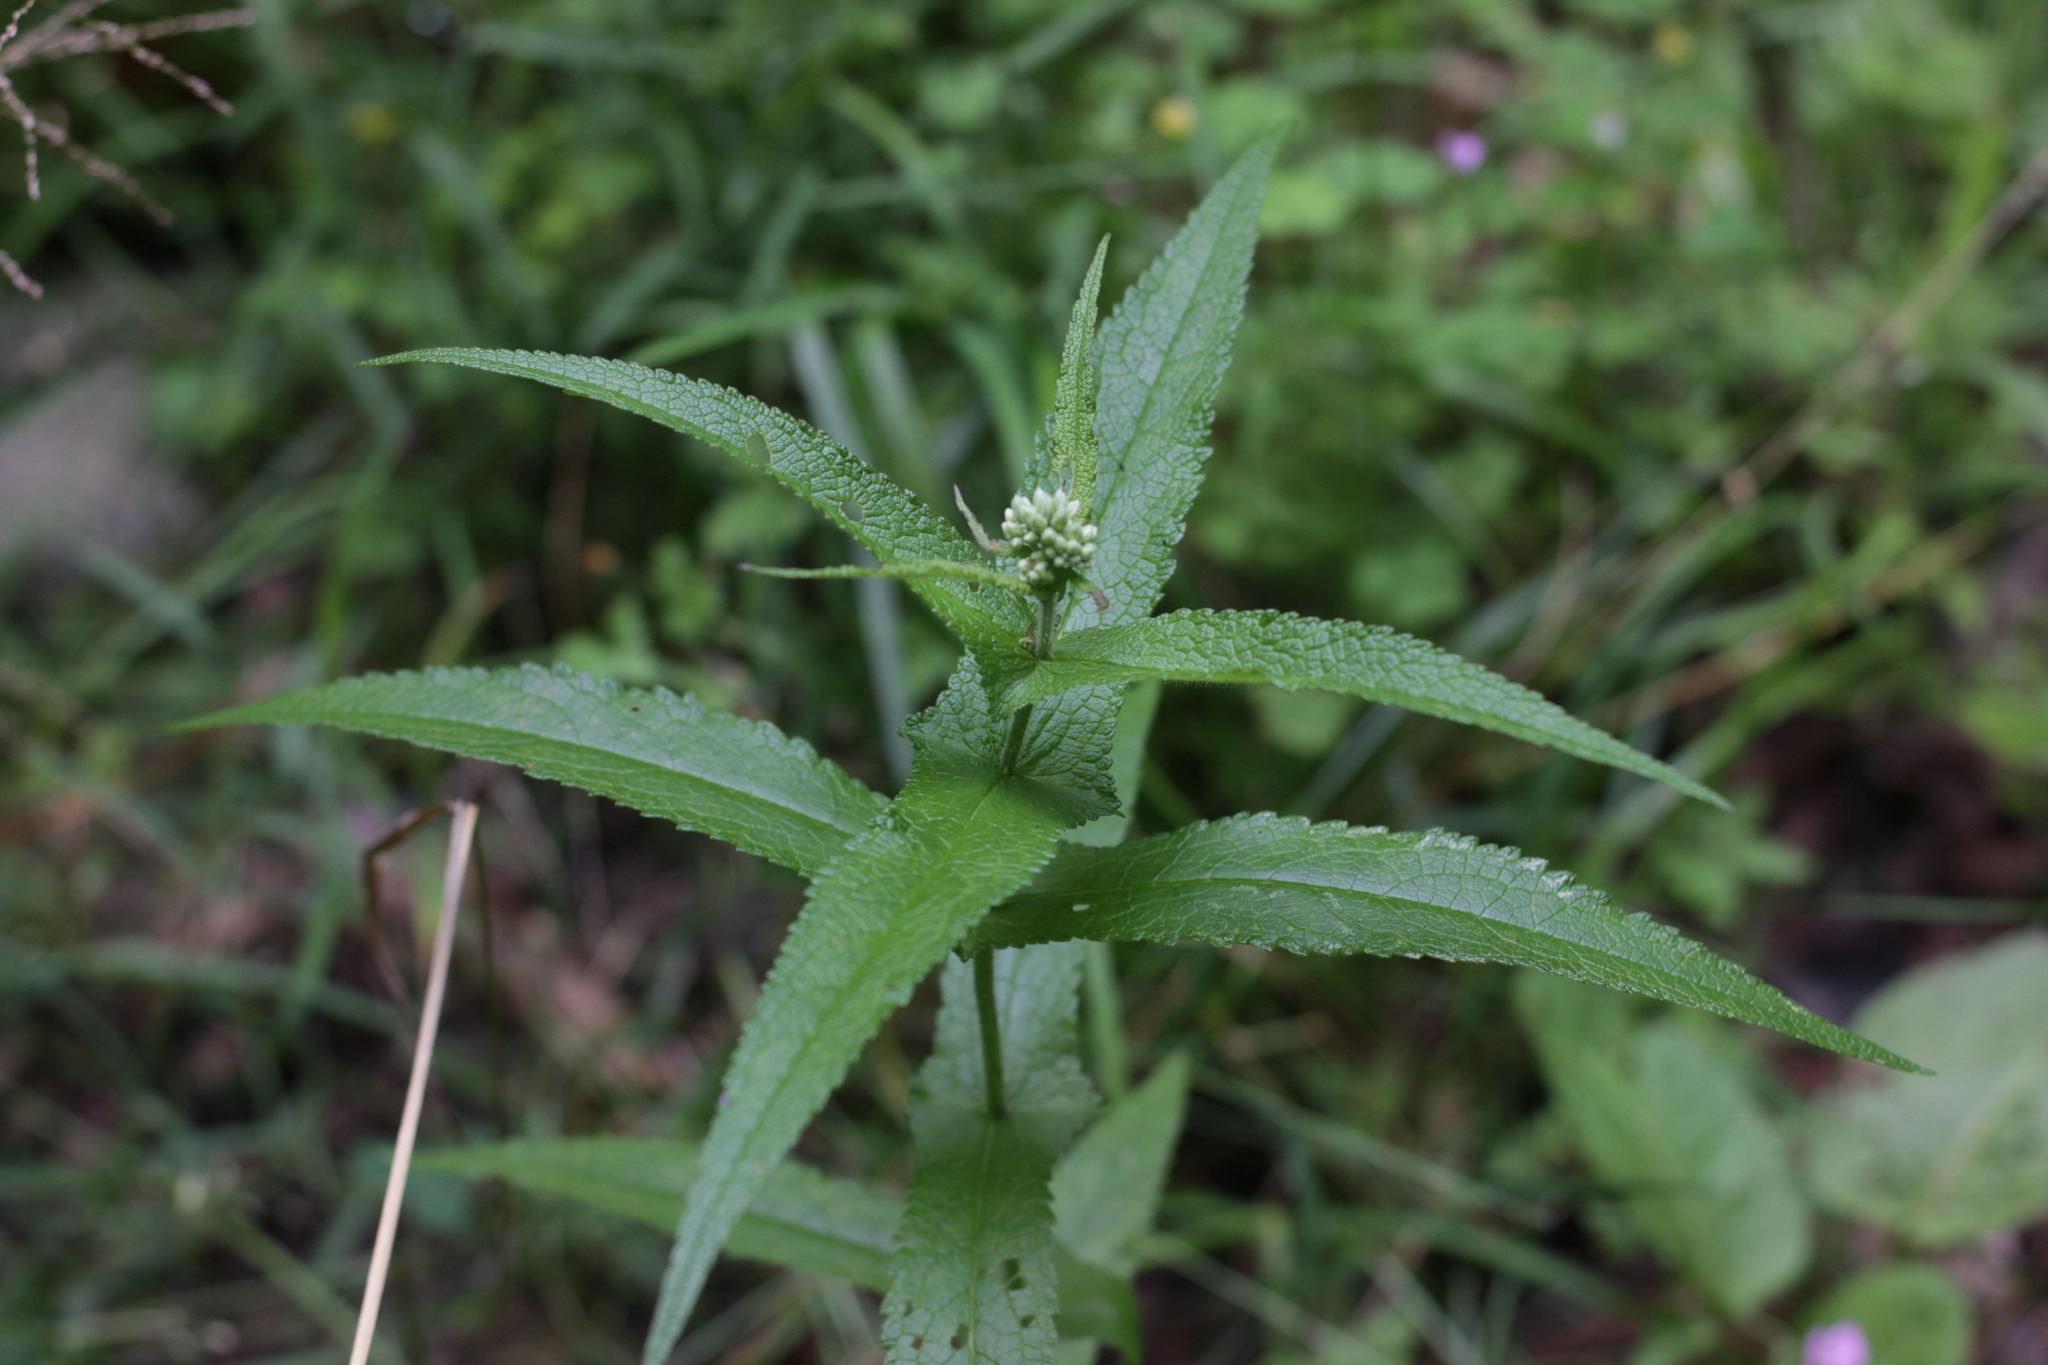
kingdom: Plantae
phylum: Tracheophyta
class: Magnoliopsida
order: Asterales
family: Asteraceae
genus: Eupatorium
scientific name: Eupatorium perfoliatum
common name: Boneset
